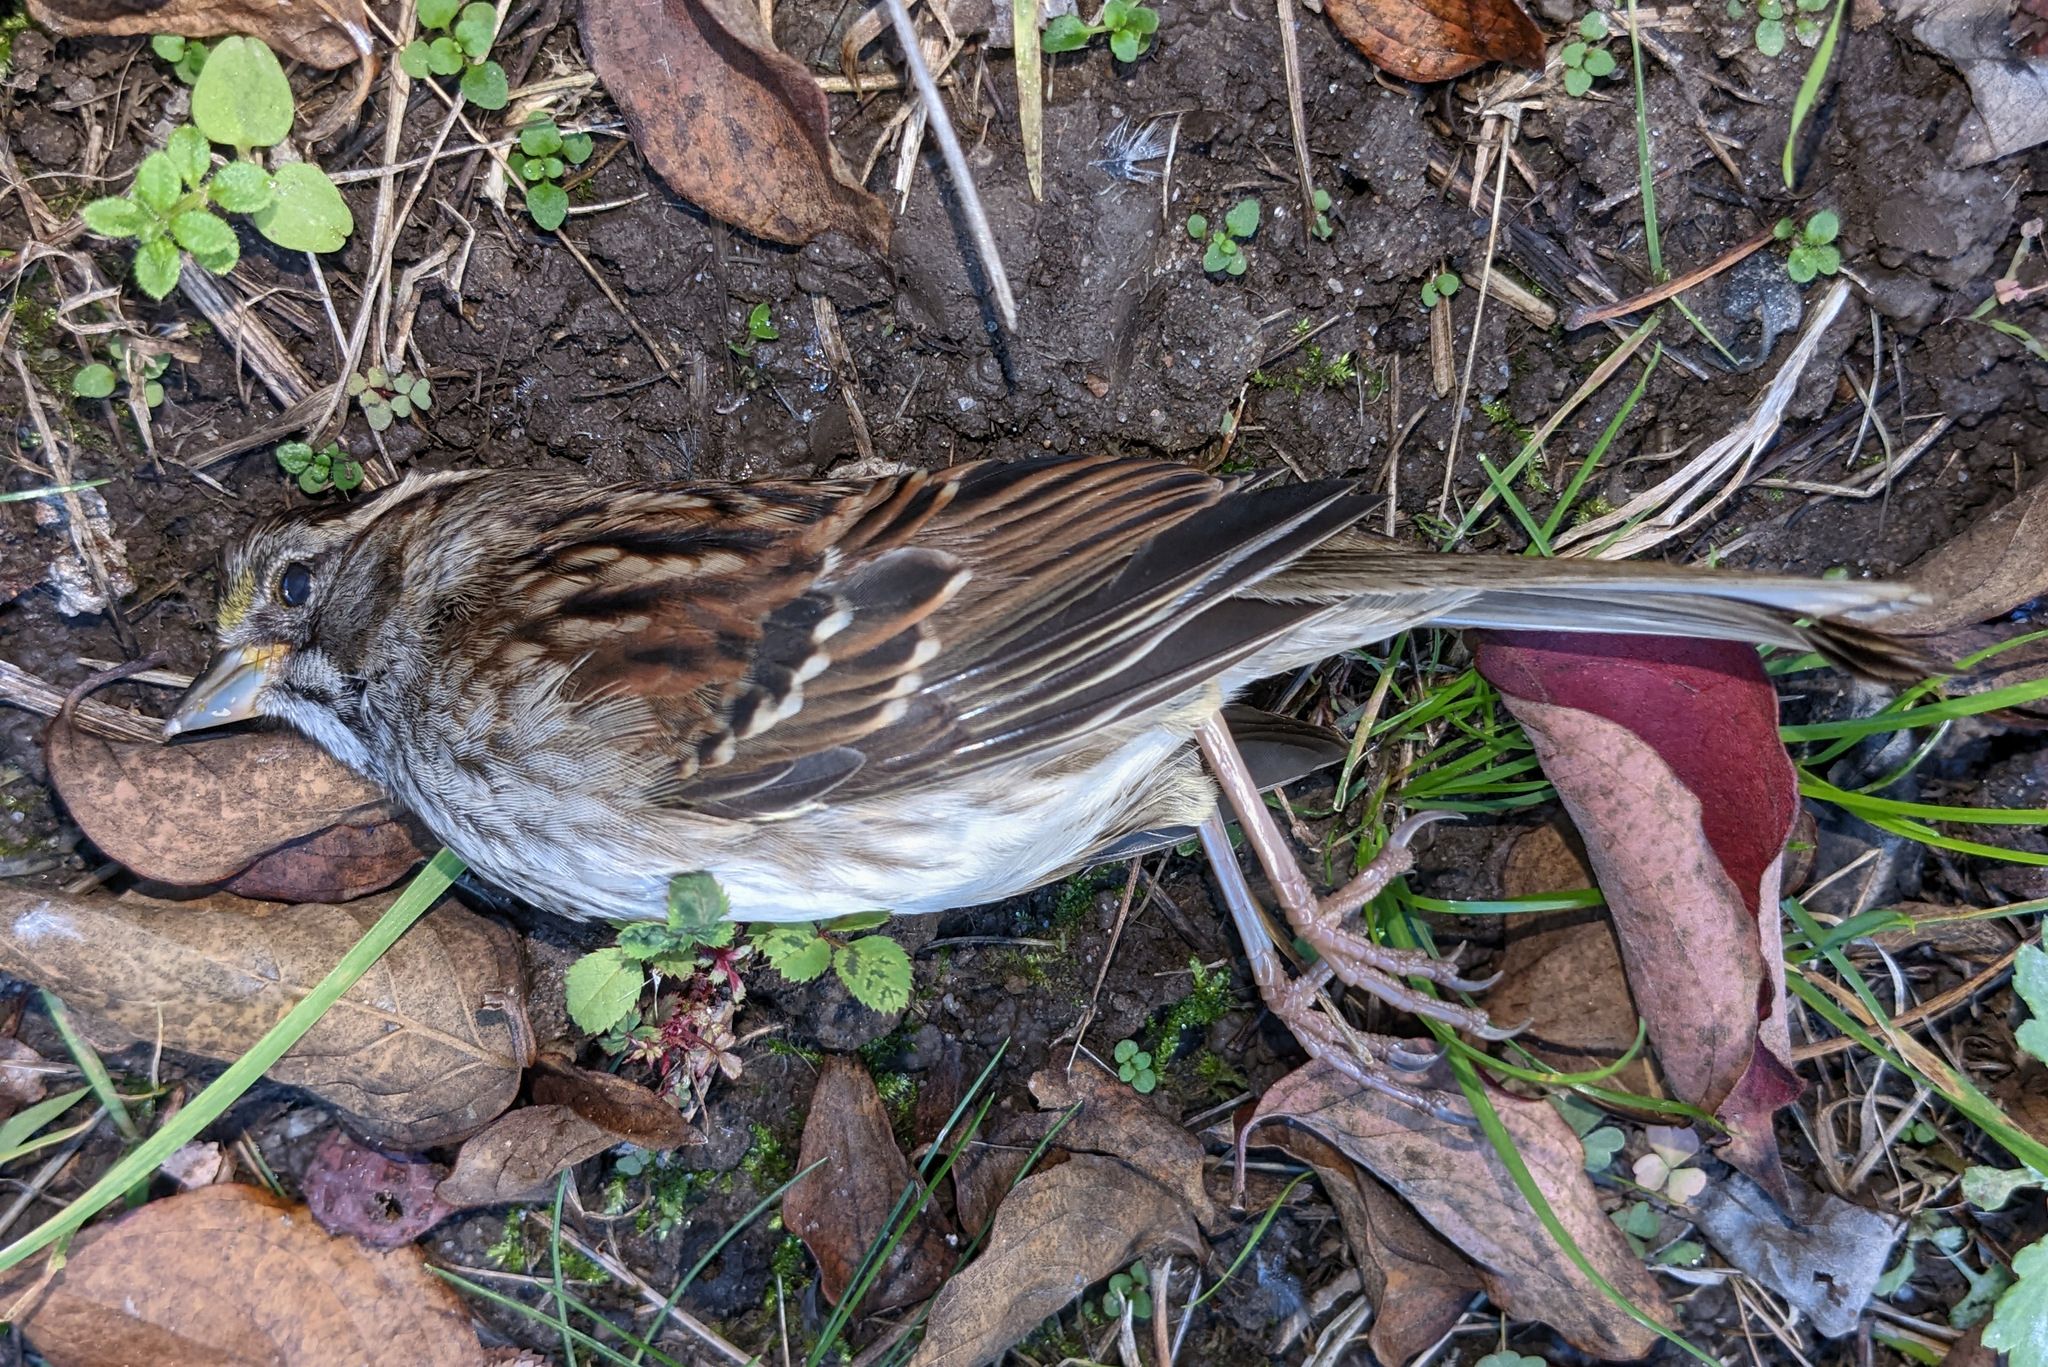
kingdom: Animalia
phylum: Chordata
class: Aves
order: Passeriformes
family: Passerellidae
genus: Zonotrichia
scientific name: Zonotrichia albicollis
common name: White-throated sparrow
